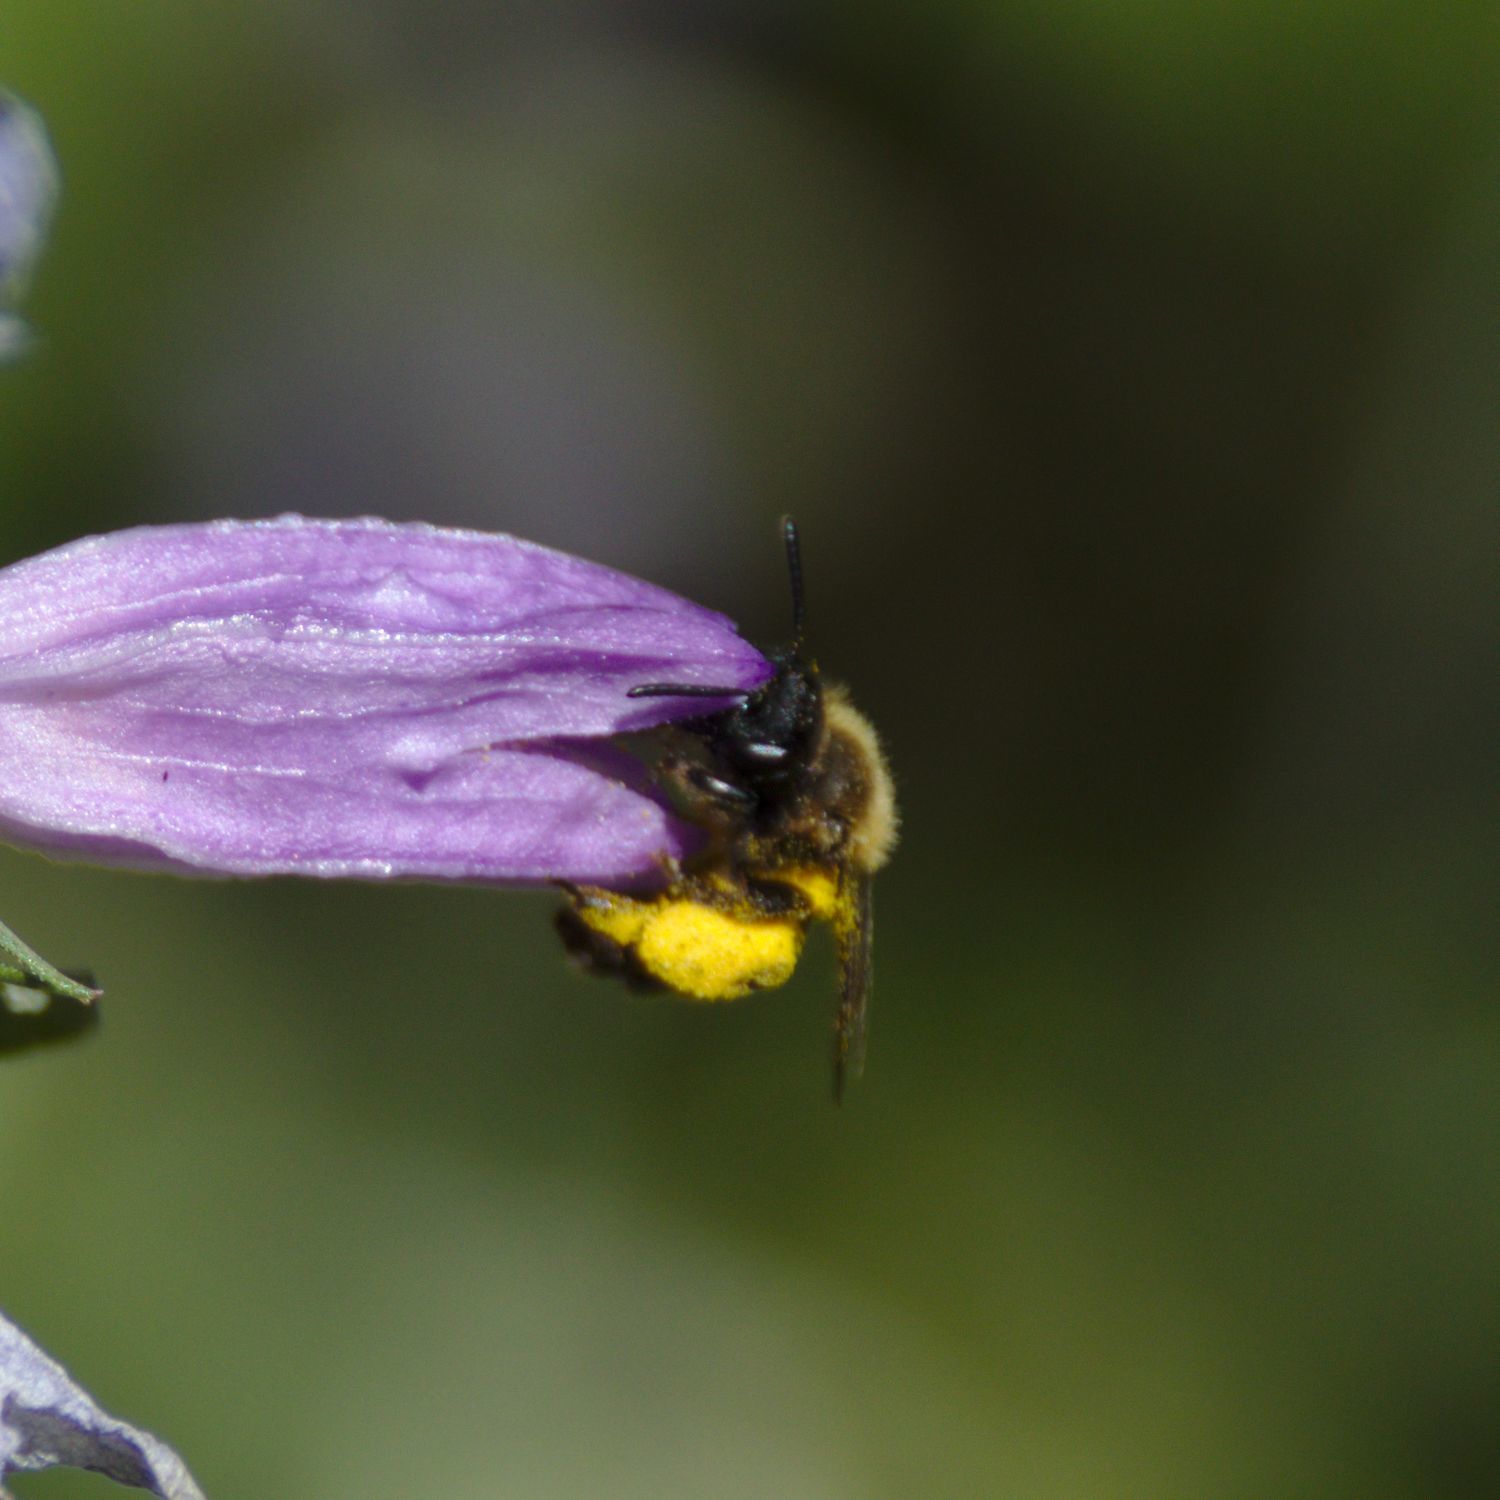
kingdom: Animalia
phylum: Arthropoda
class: Insecta
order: Hymenoptera
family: Andrenidae
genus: Andrena
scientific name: Andrena
